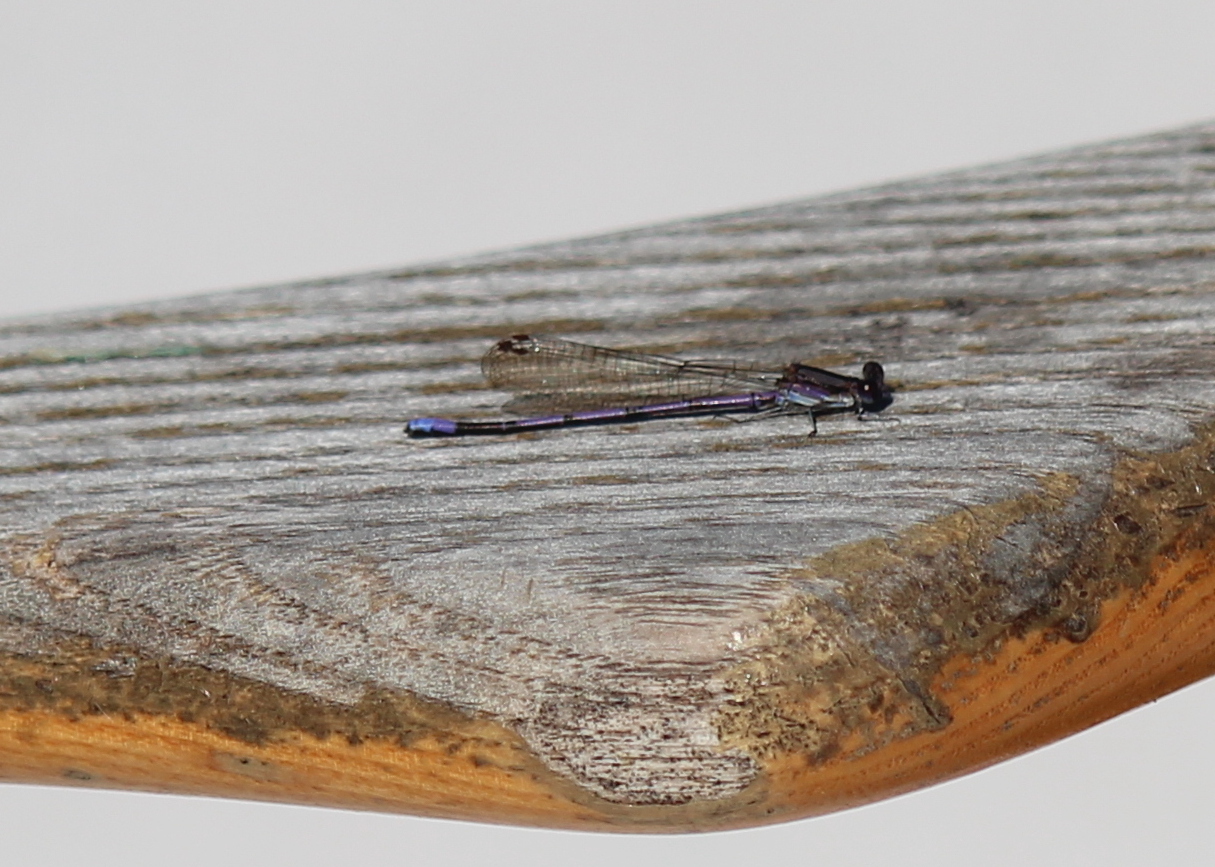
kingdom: Animalia
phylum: Arthropoda
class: Insecta
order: Odonata
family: Coenagrionidae
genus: Argia
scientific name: Argia fumipennis
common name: Variable dancer
